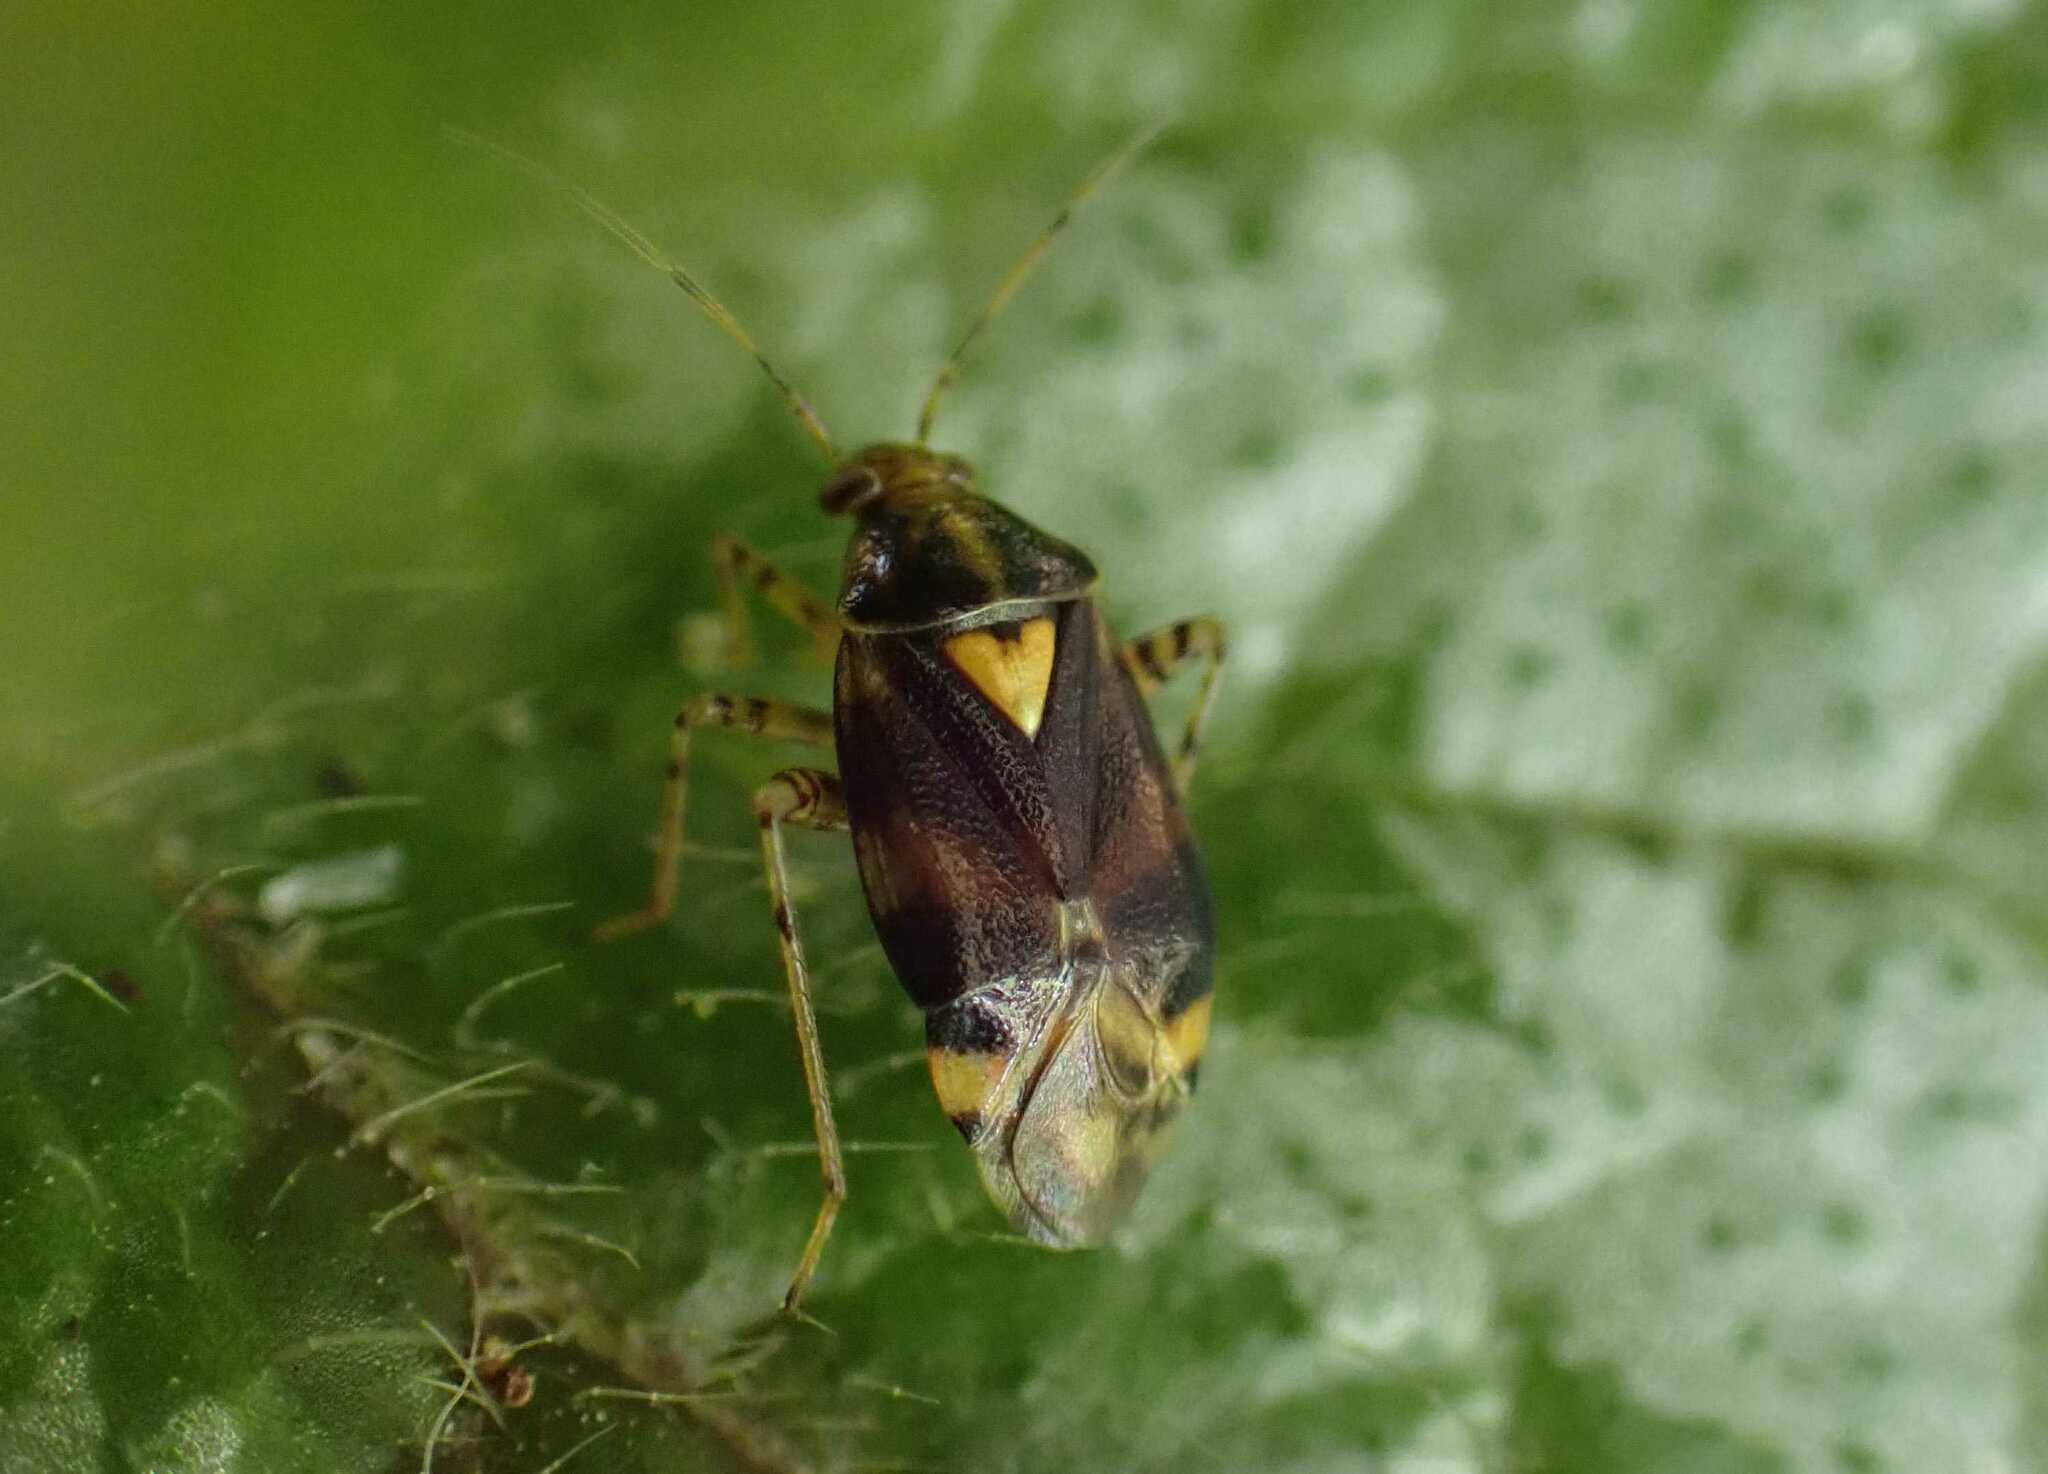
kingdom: Animalia
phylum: Arthropoda
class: Insecta
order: Hemiptera
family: Miridae
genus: Liocoris
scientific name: Liocoris tripustulatus
